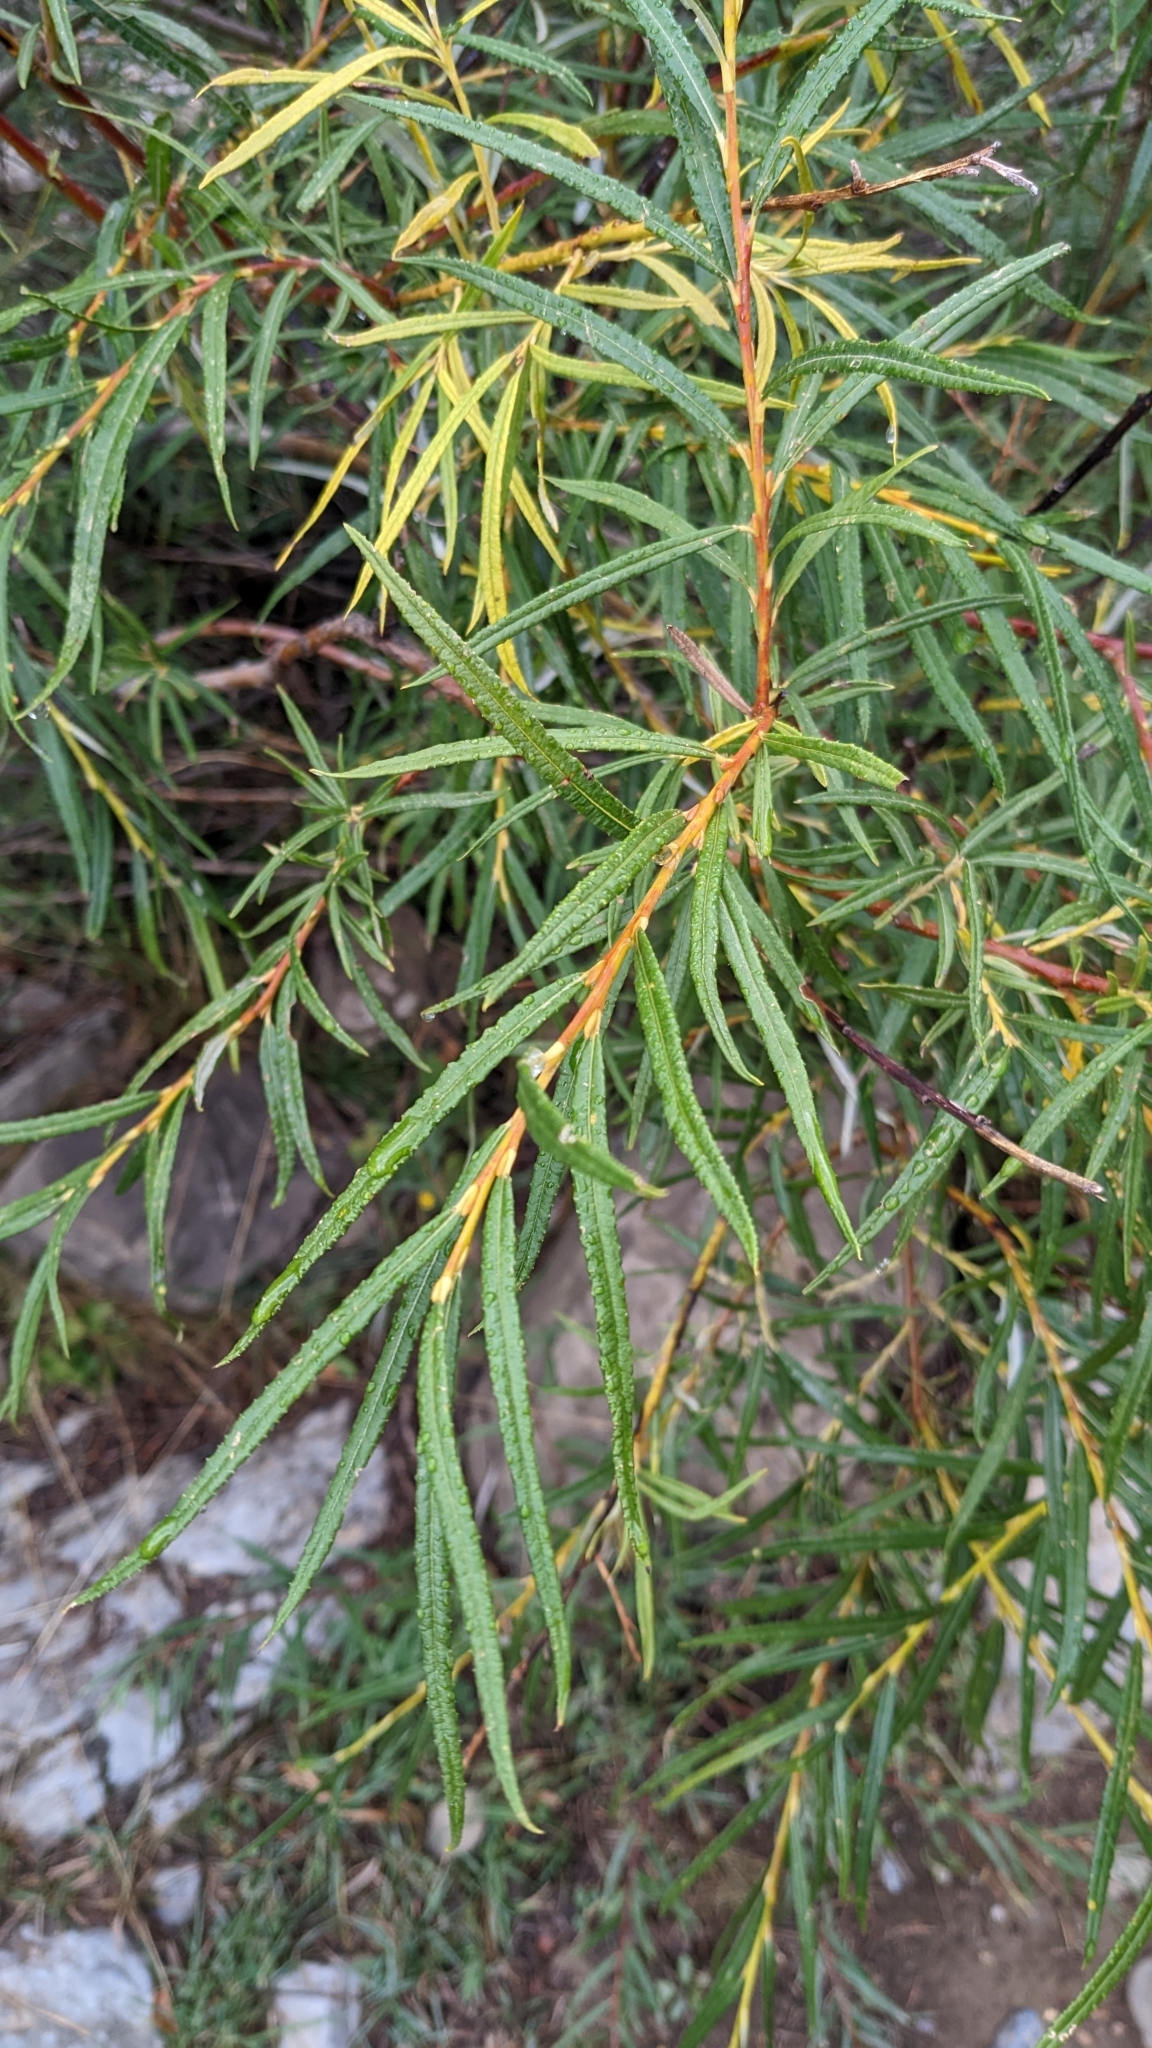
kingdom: Plantae
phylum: Tracheophyta
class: Magnoliopsida
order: Malpighiales
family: Salicaceae
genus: Salix
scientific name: Salix eleagnos
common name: Elaeagnus willow
